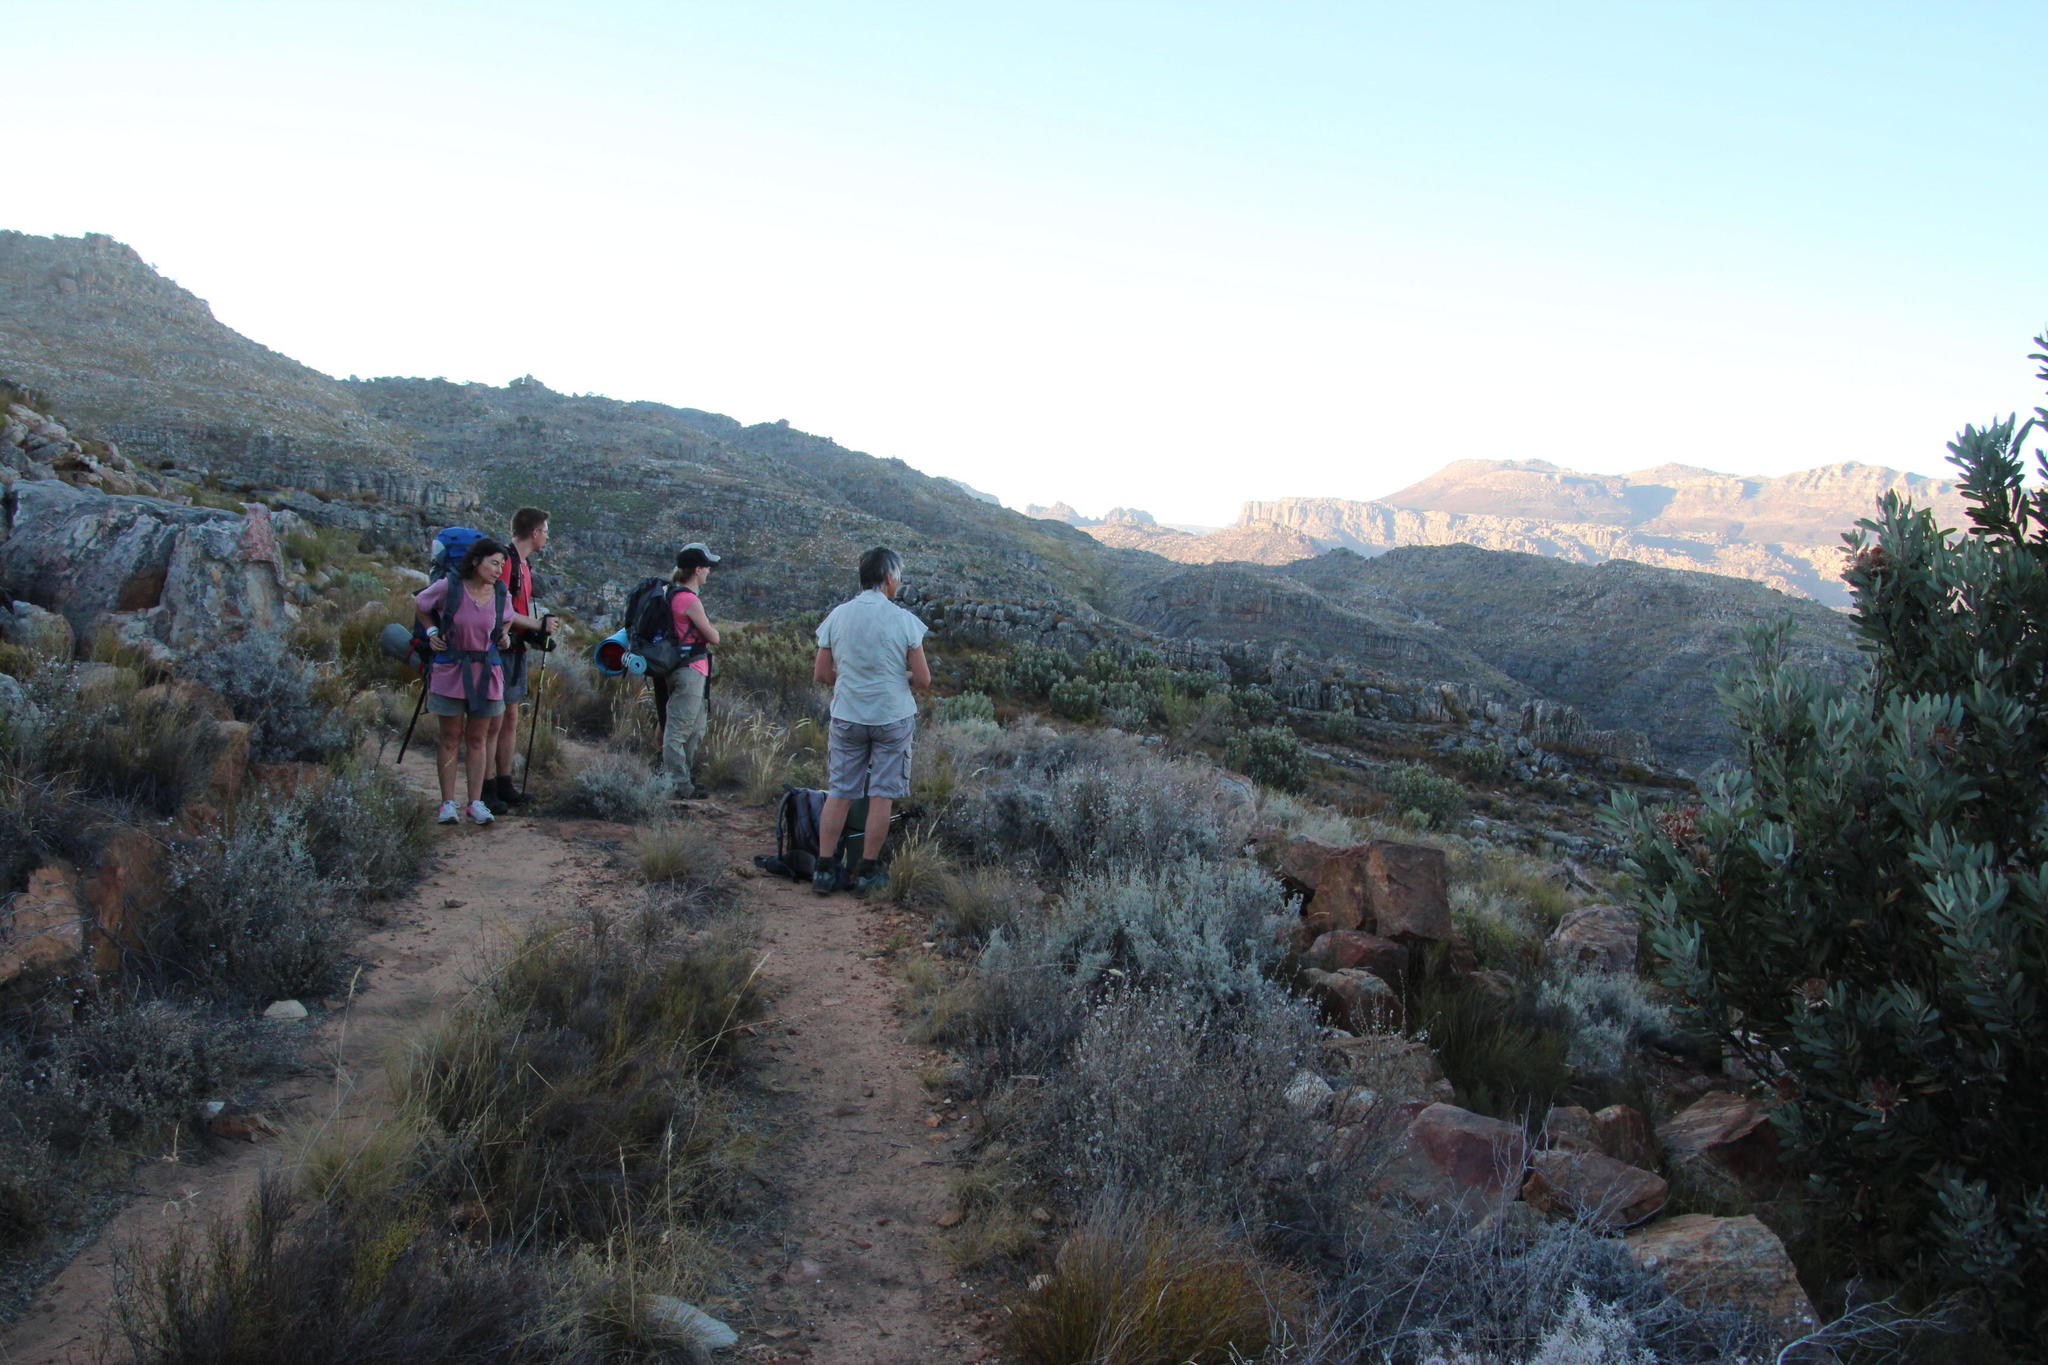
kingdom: Plantae
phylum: Tracheophyta
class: Magnoliopsida
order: Proteales
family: Proteaceae
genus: Protea
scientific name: Protea laurifolia
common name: Grey-leaf sugarbsh
